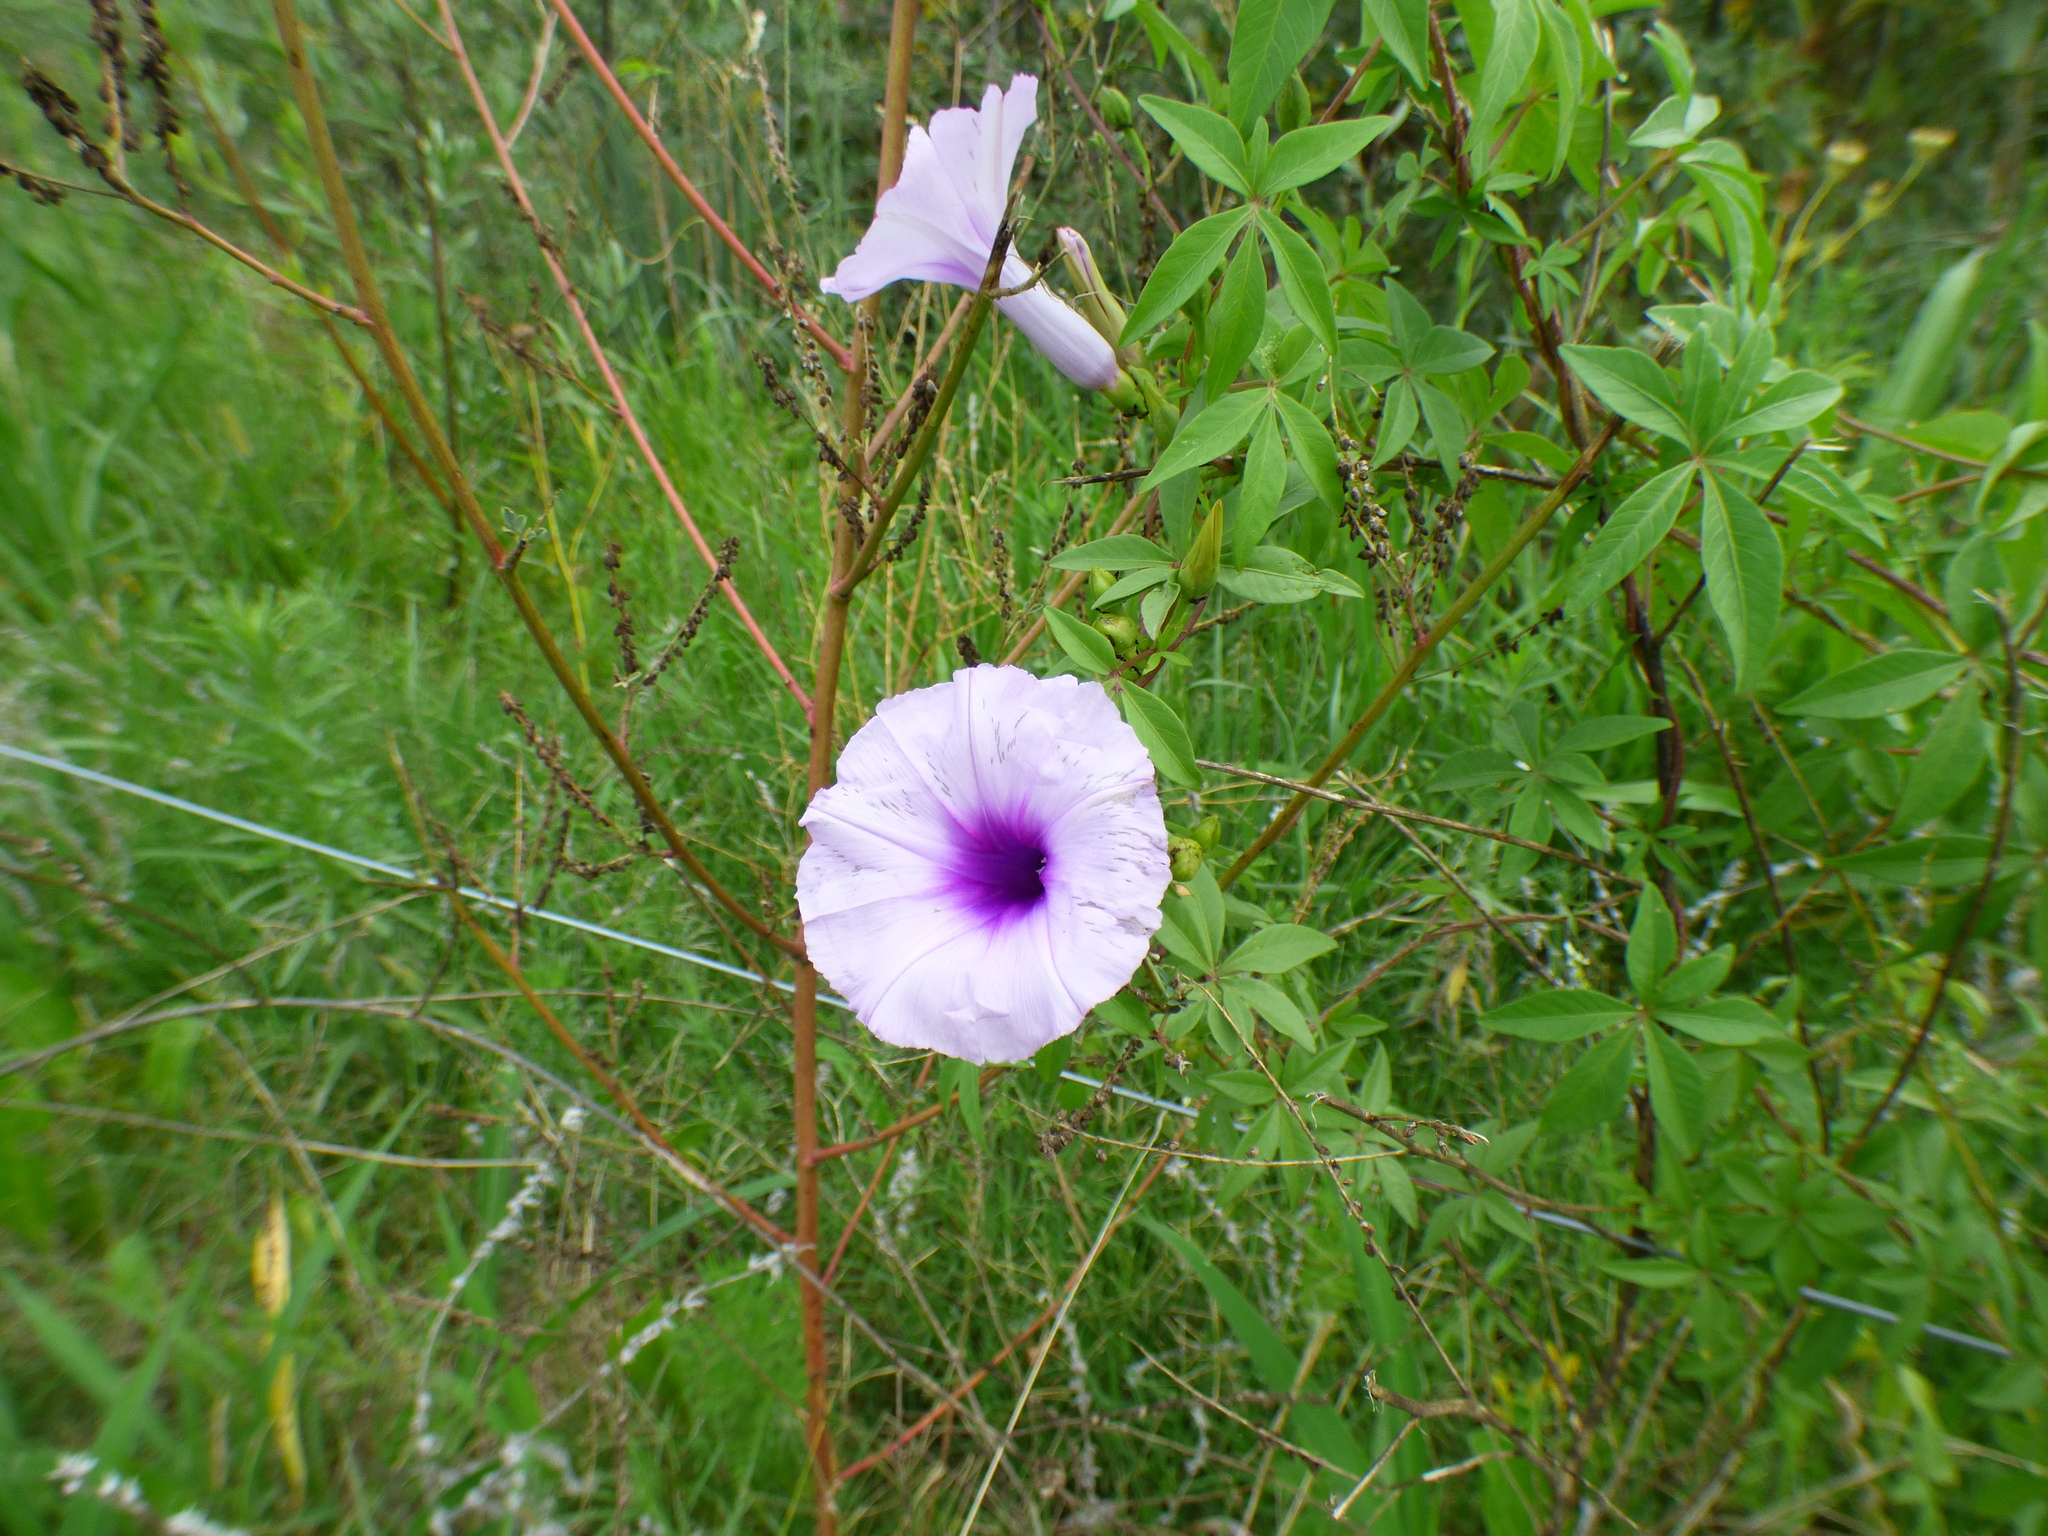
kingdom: Plantae
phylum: Tracheophyta
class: Magnoliopsida
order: Solanales
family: Convolvulaceae
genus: Ipomoea
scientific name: Ipomoea cairica
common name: Mile a minute vine
